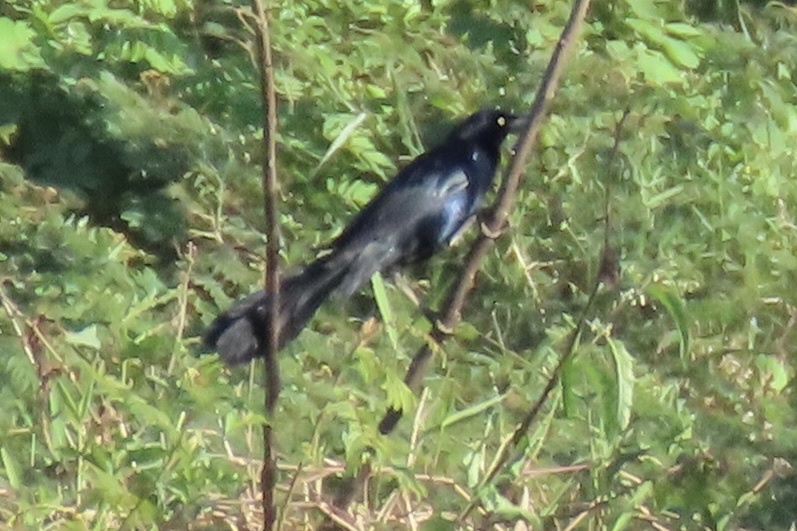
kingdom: Animalia
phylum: Chordata
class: Aves
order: Passeriformes
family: Icteridae
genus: Quiscalus
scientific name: Quiscalus mexicanus
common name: Great-tailed grackle
